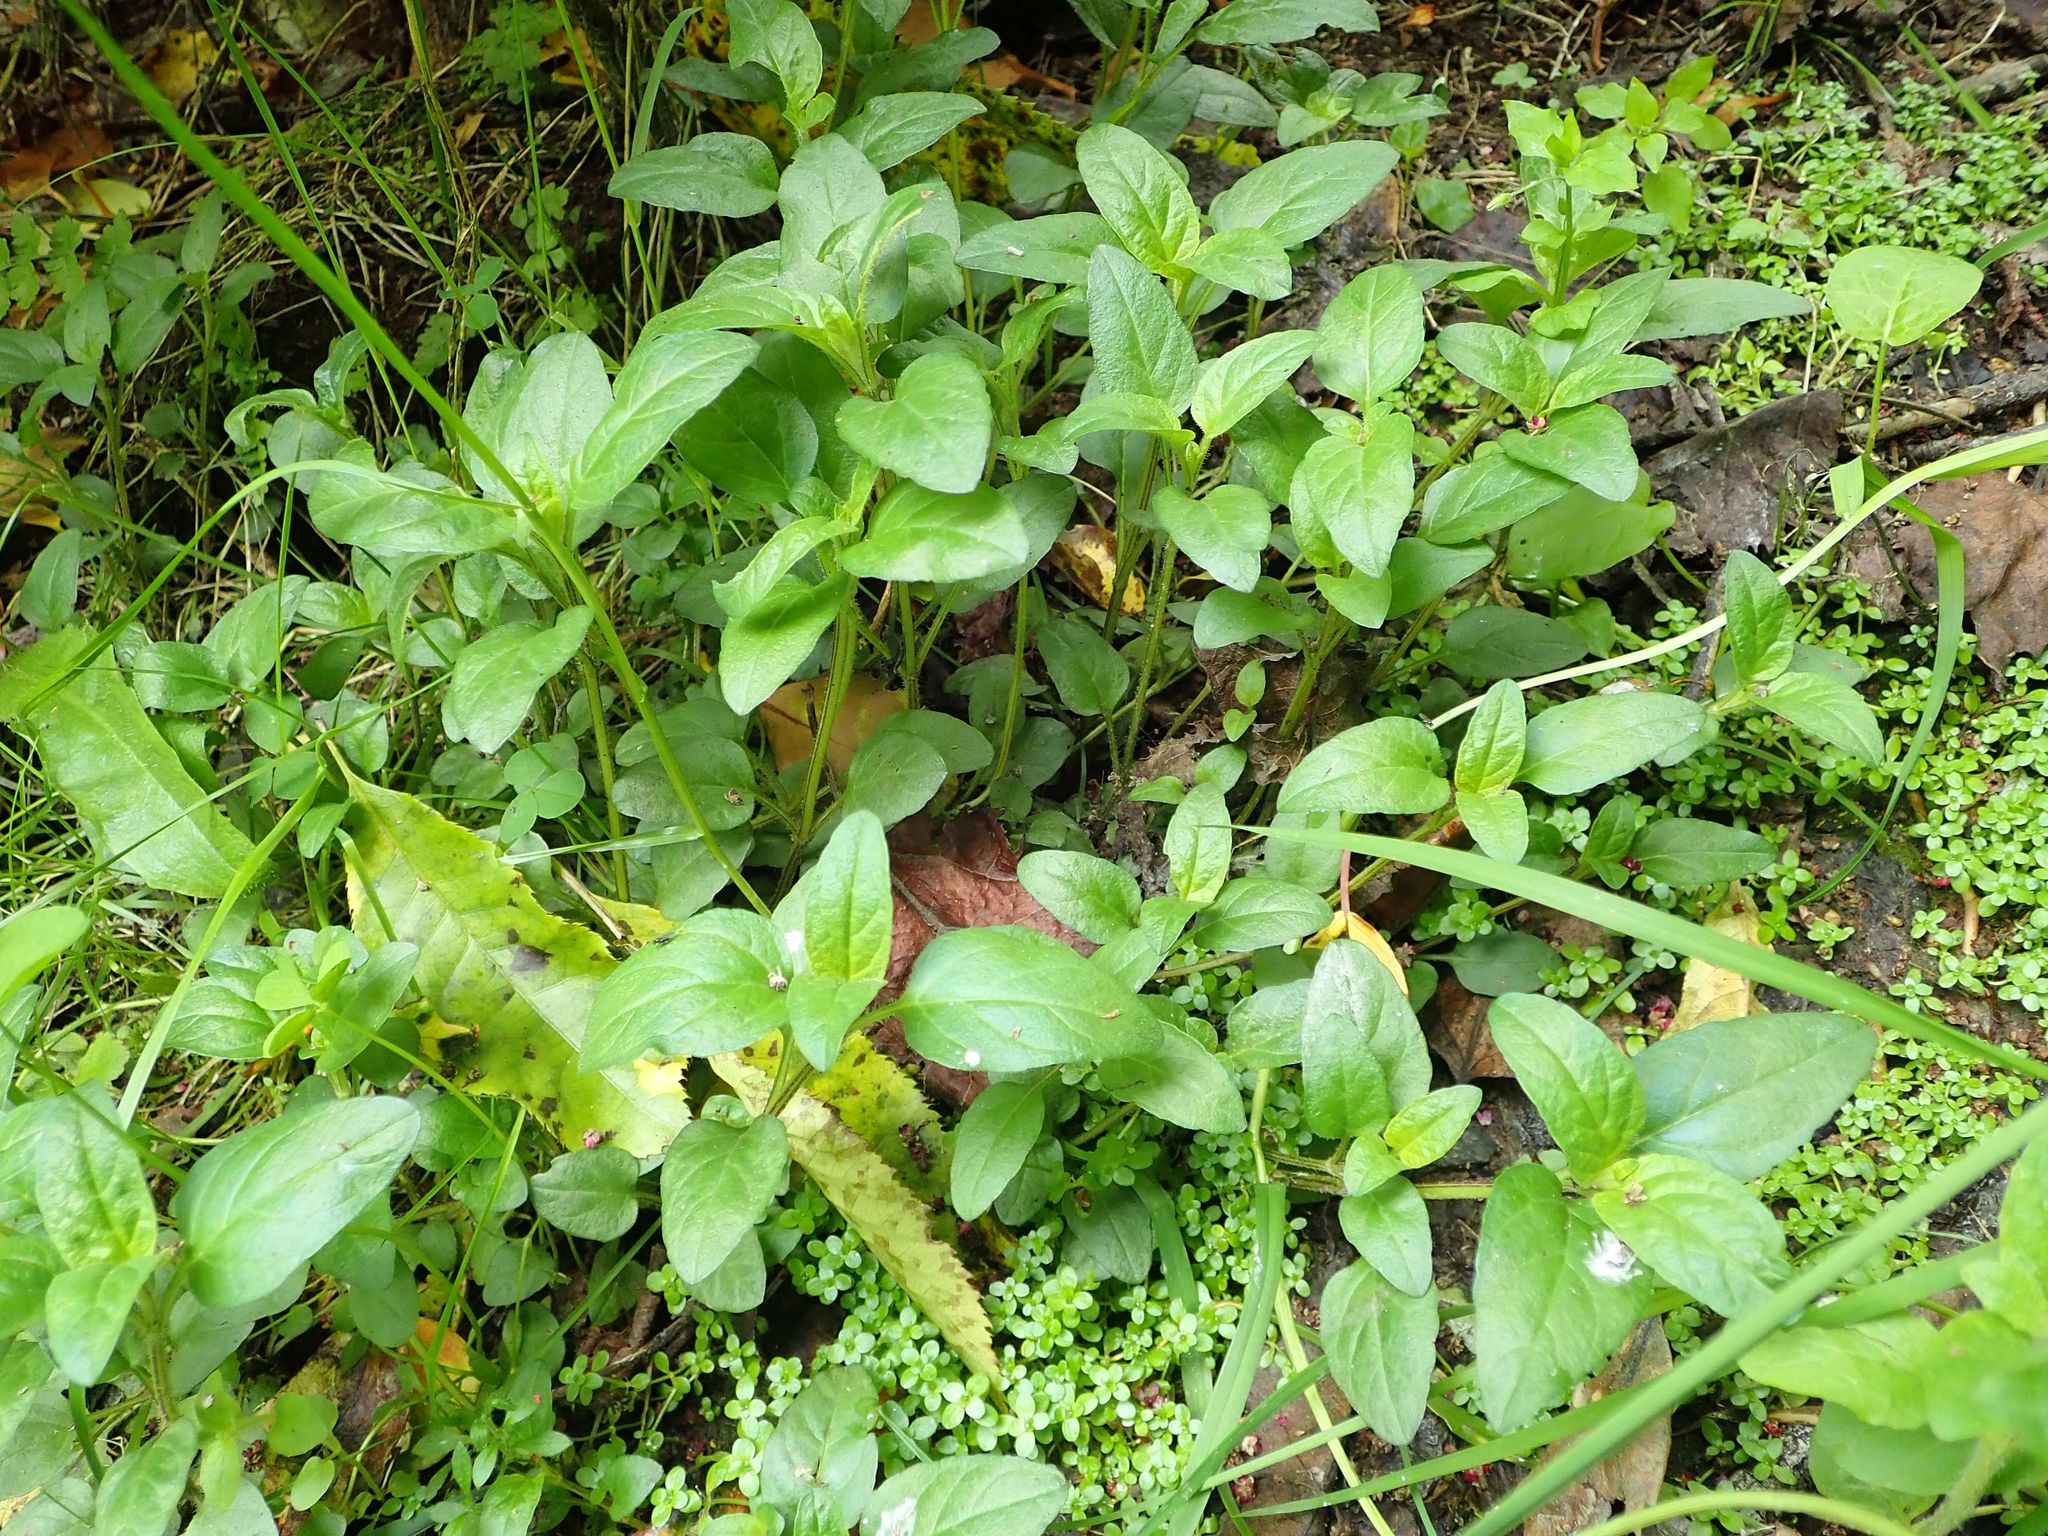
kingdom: Plantae
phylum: Tracheophyta
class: Magnoliopsida
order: Lamiales
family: Lamiaceae
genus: Prunella
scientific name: Prunella vulgaris
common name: Heal-all
